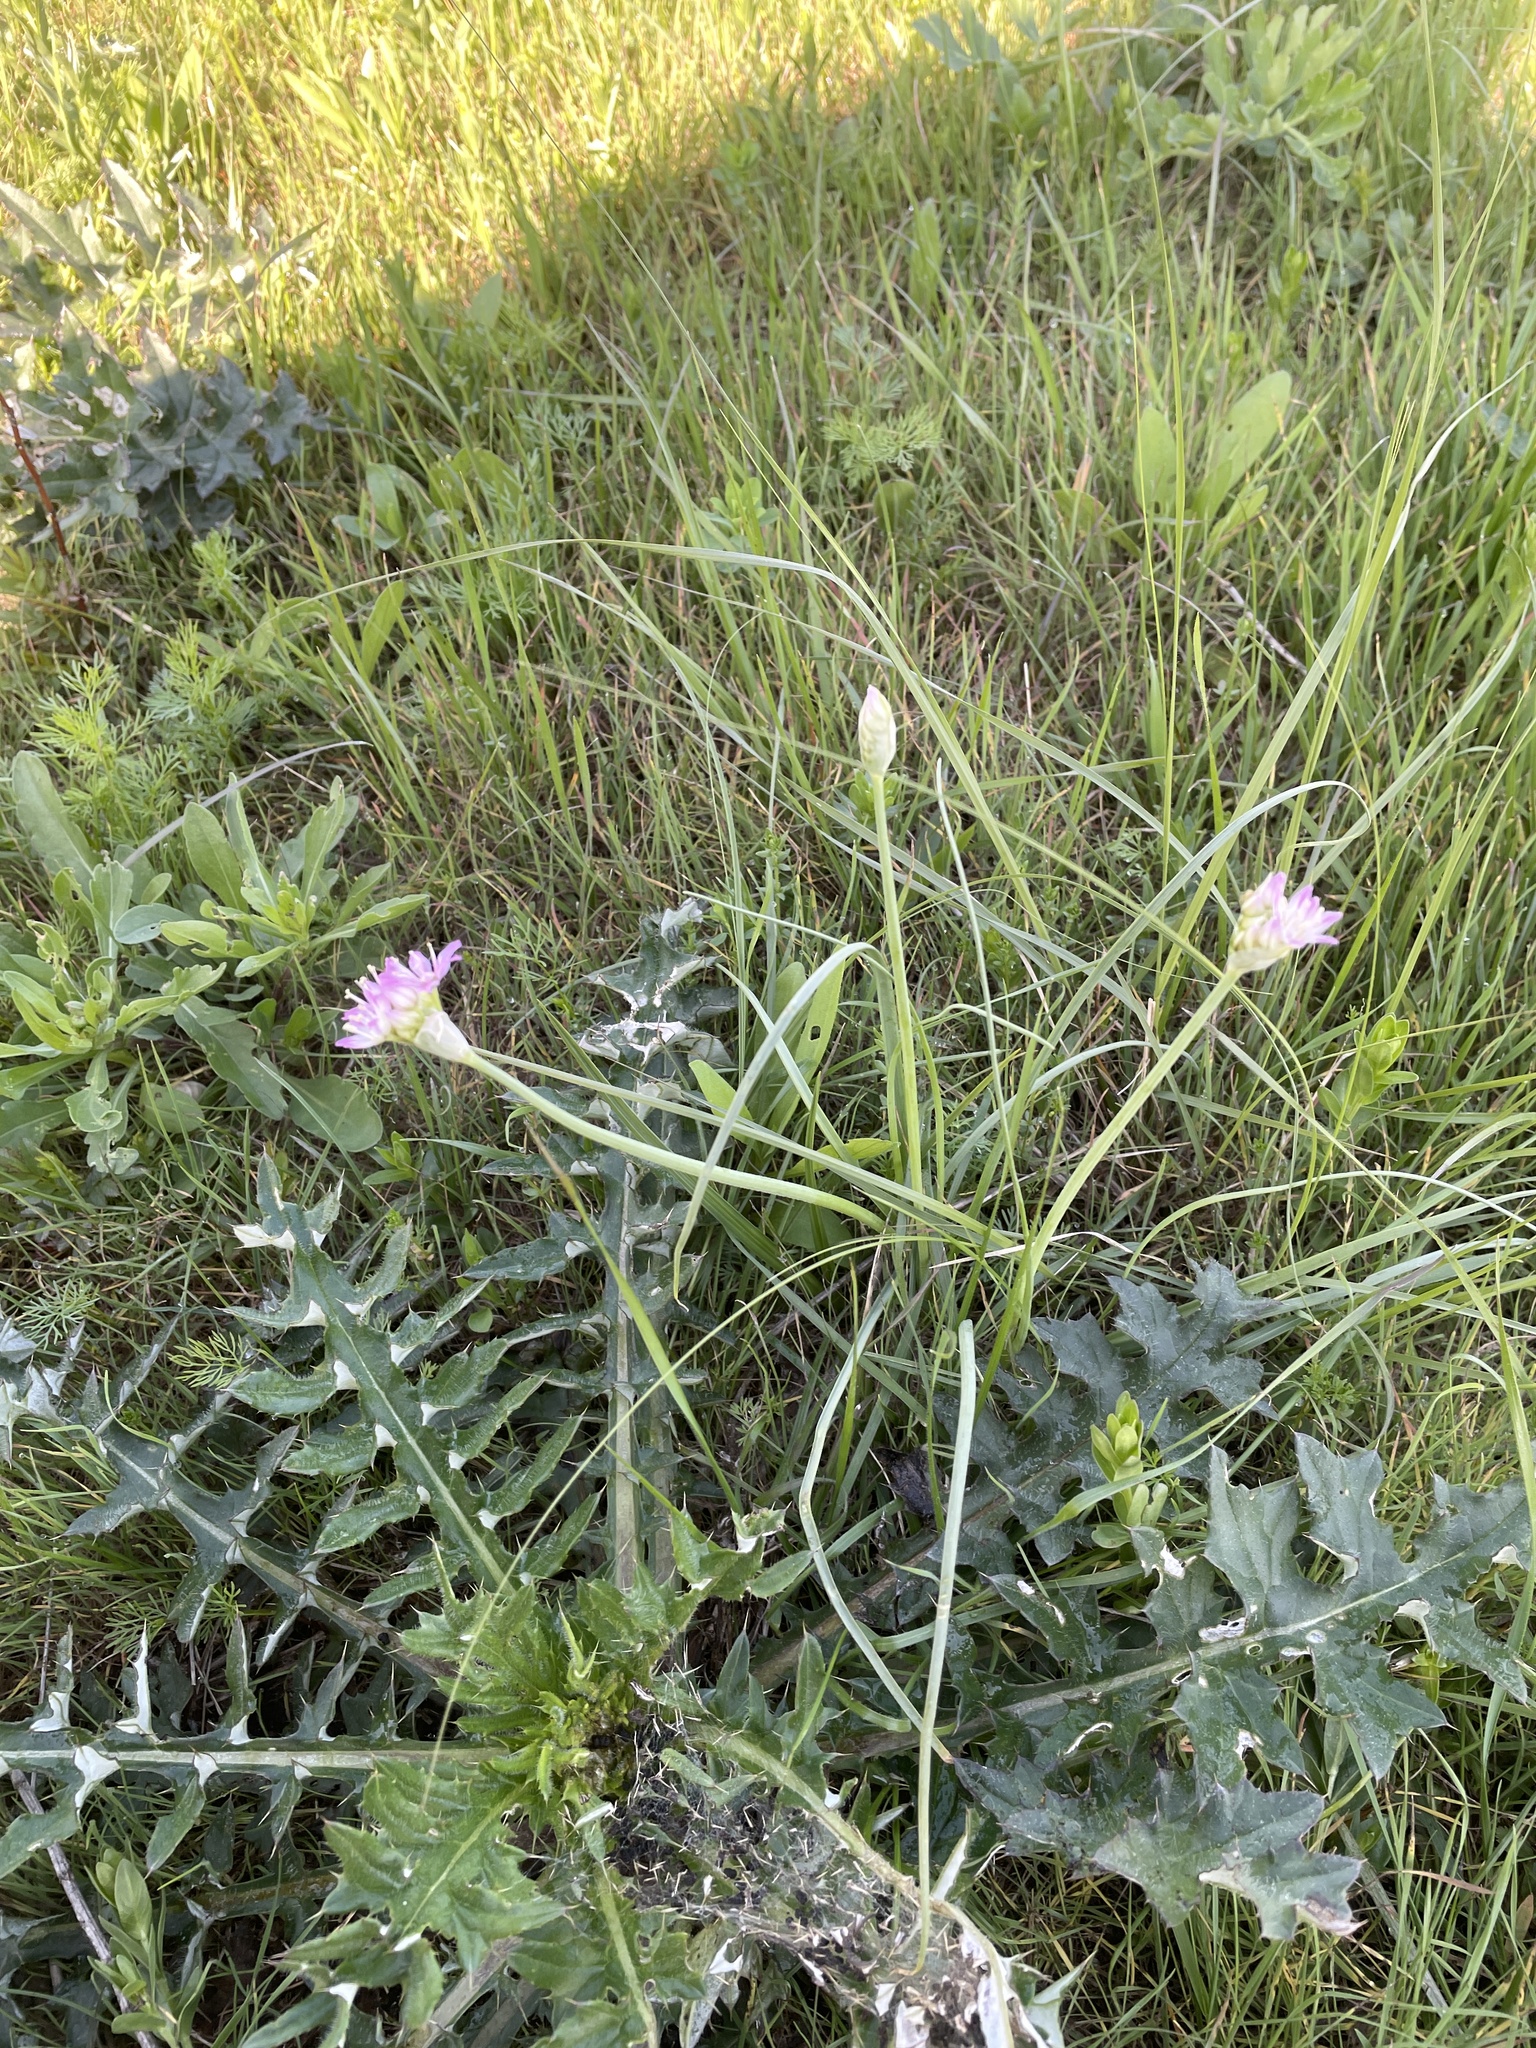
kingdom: Plantae
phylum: Tracheophyta
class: Liliopsida
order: Asparagales
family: Amaryllidaceae
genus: Allium
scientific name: Allium drummondii
